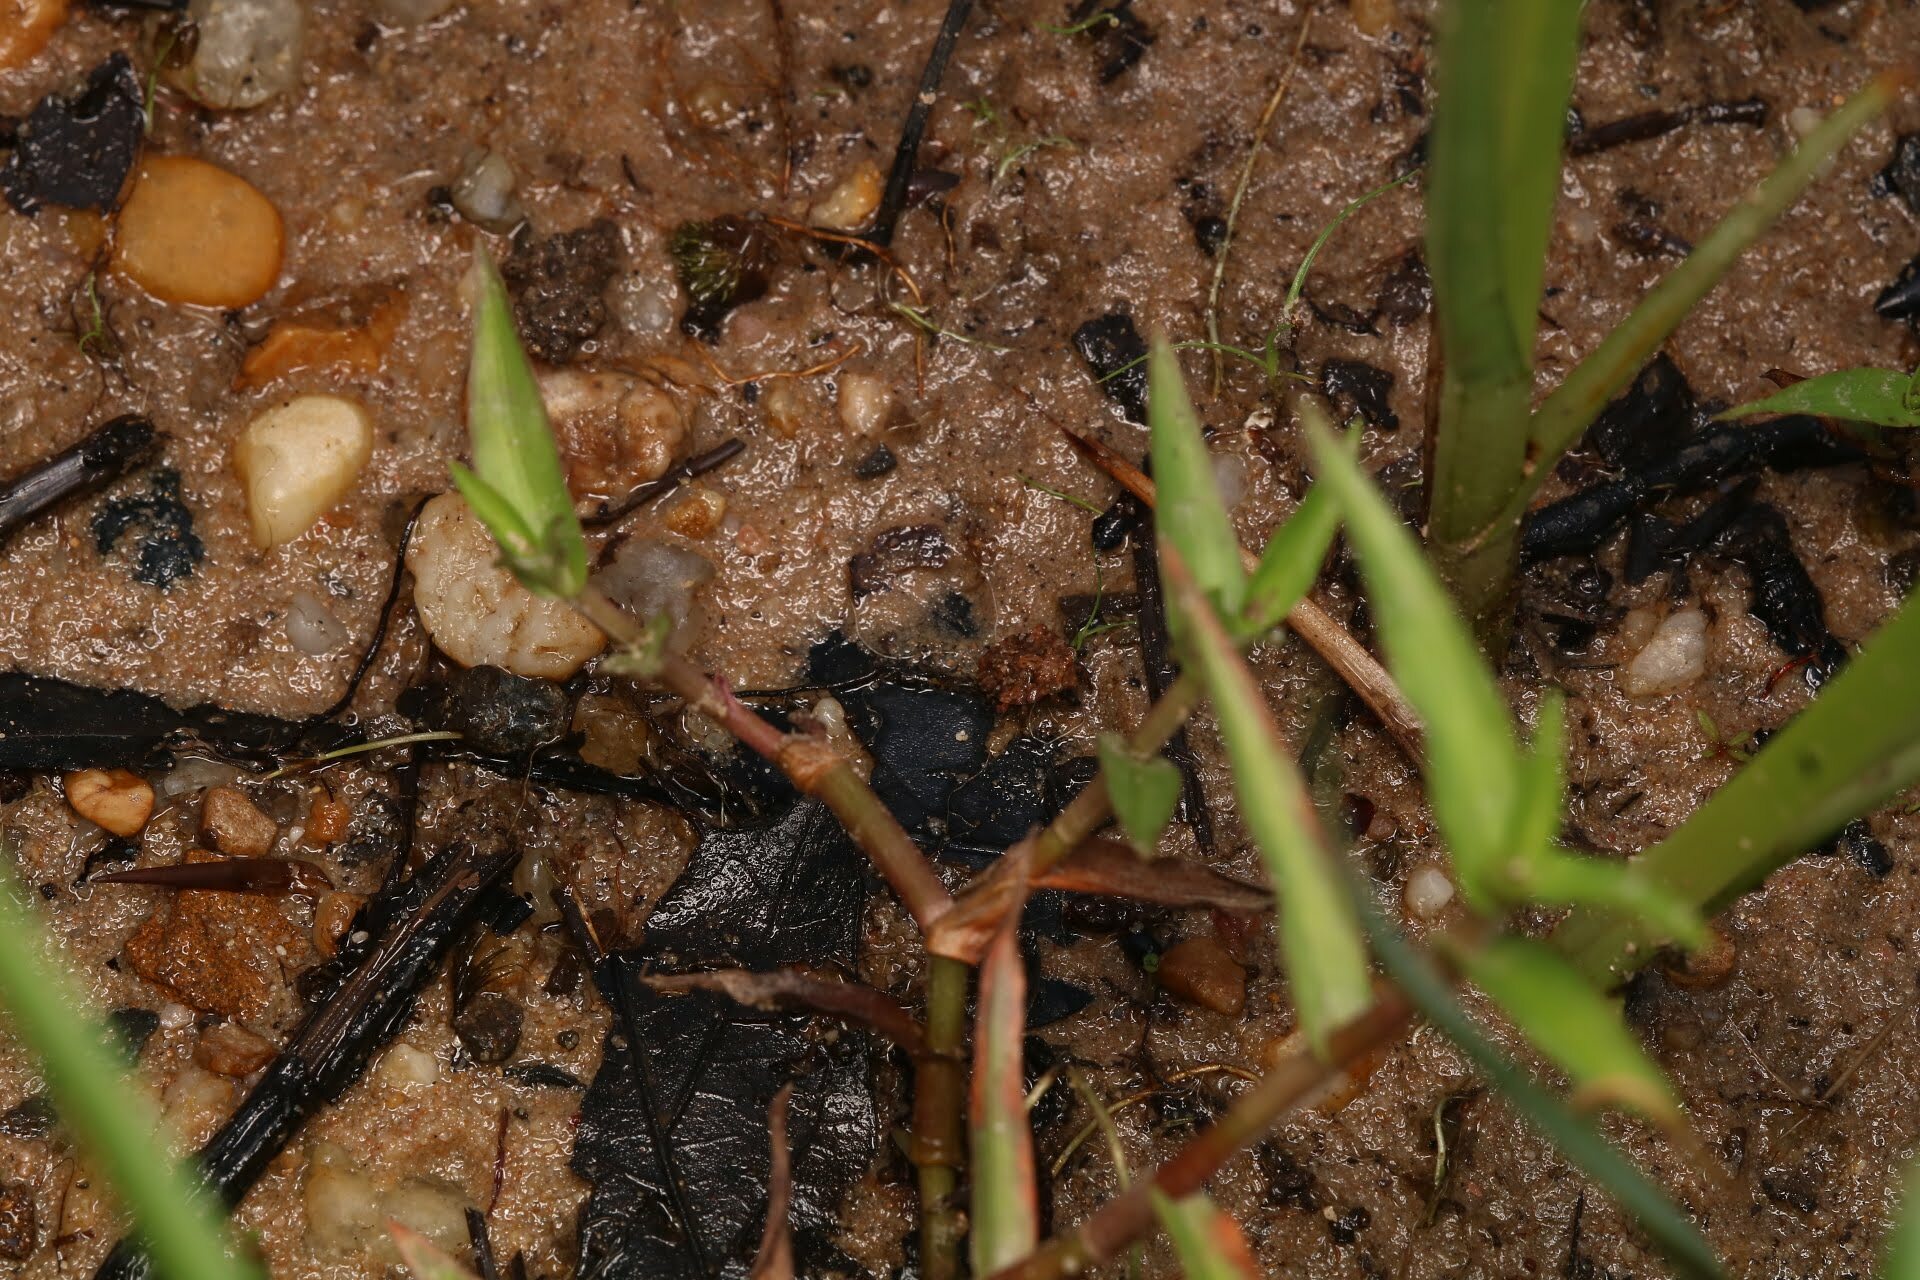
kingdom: Animalia
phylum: Arthropoda
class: Insecta
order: Hemiptera
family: Gelastocoridae
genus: Gelastocoris
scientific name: Gelastocoris oculatus
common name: Toad bug
